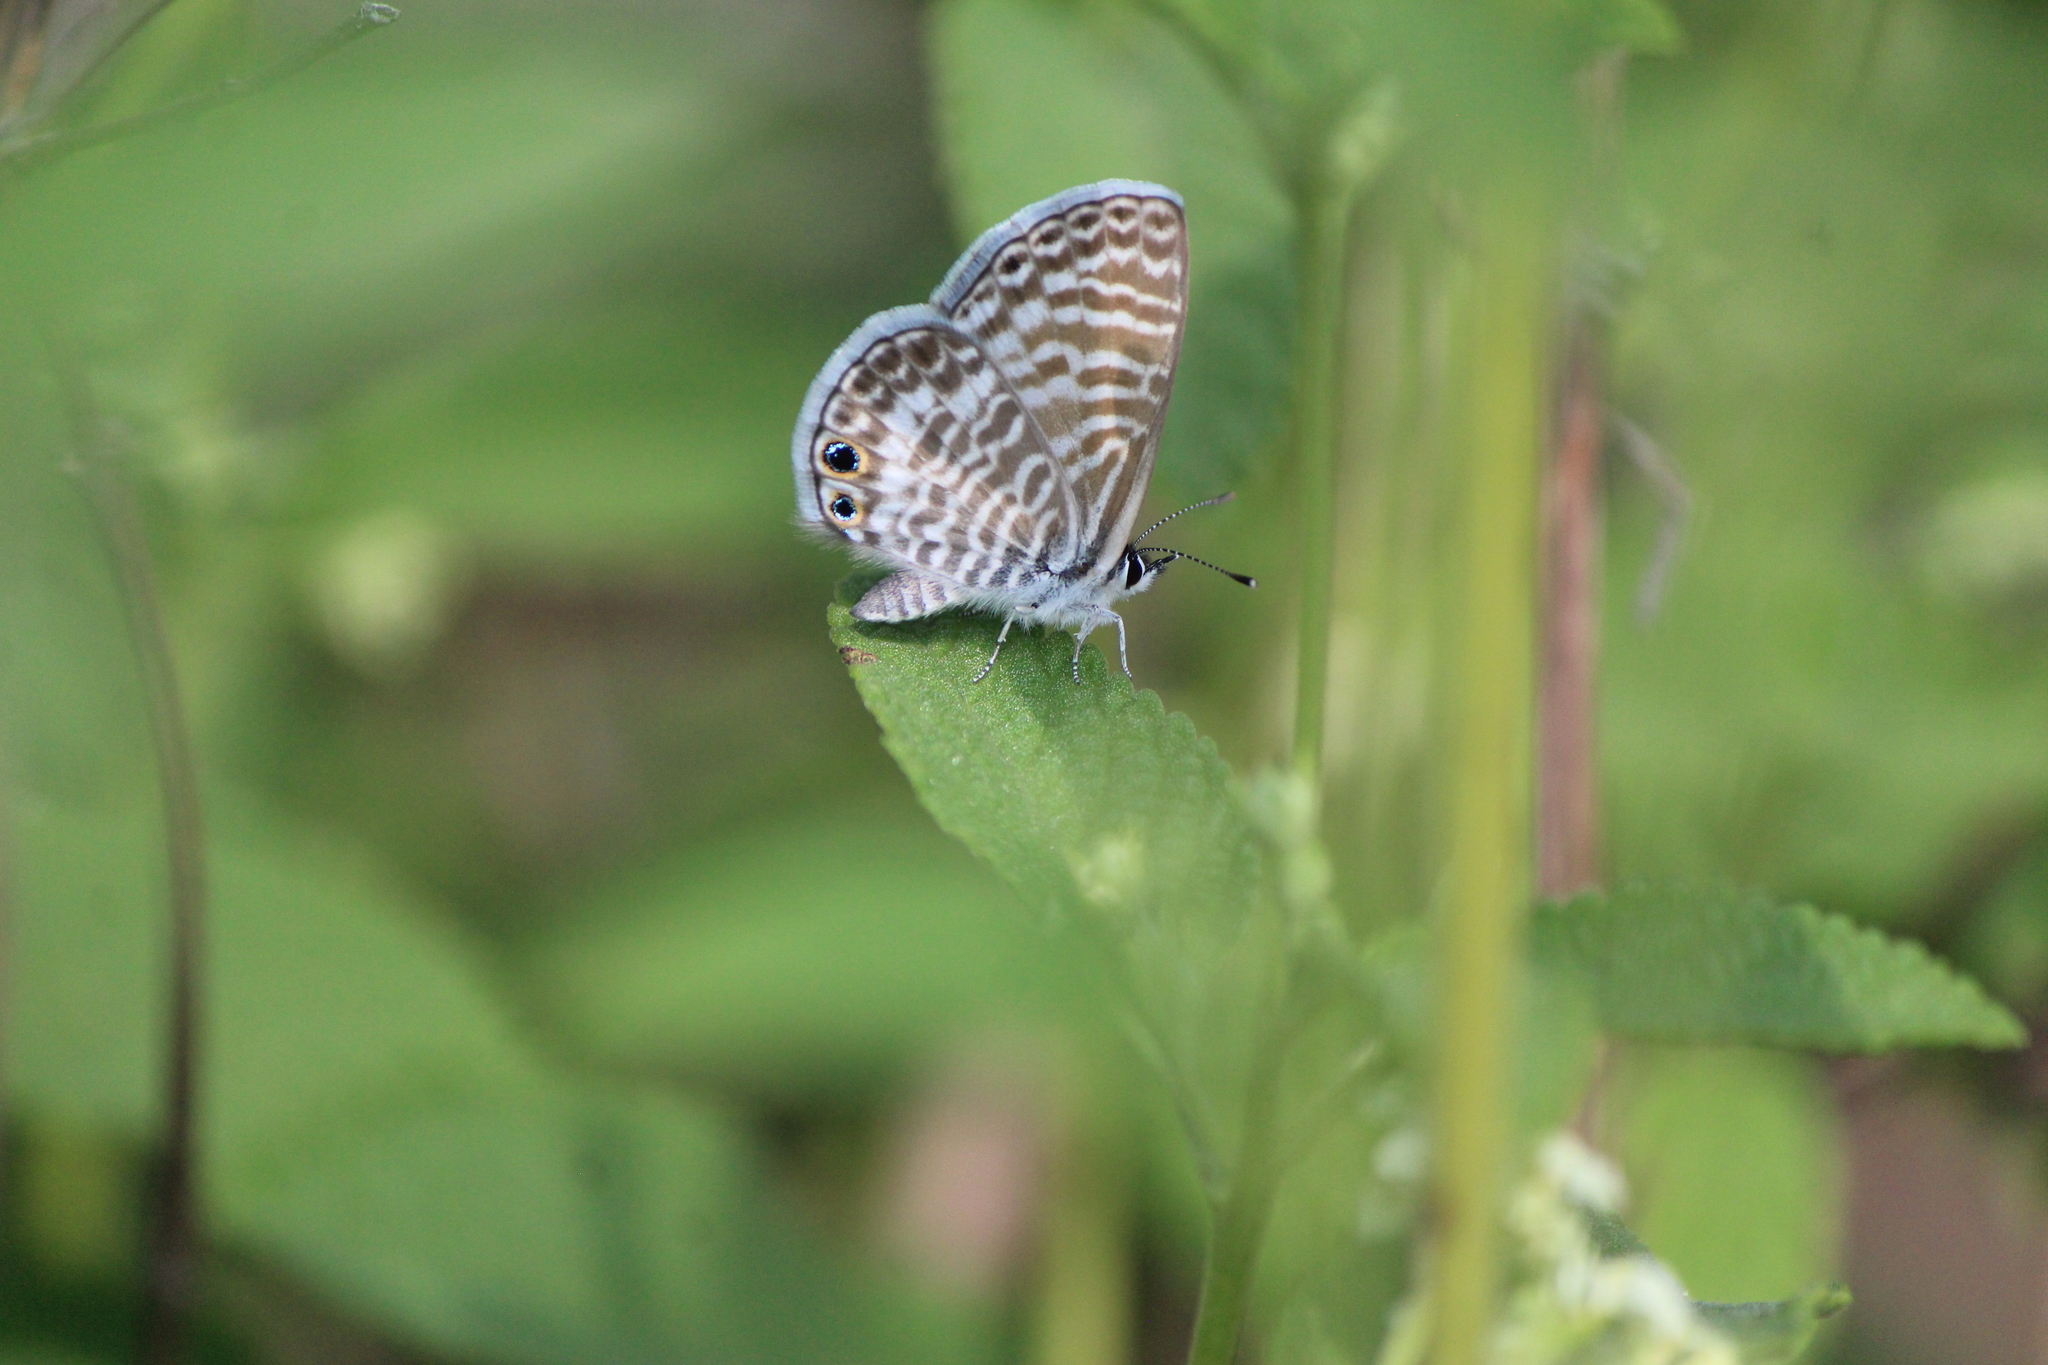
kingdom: Animalia
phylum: Arthropoda
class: Insecta
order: Lepidoptera
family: Lycaenidae
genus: Leptotes
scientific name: Leptotes marina
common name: Marine blue
